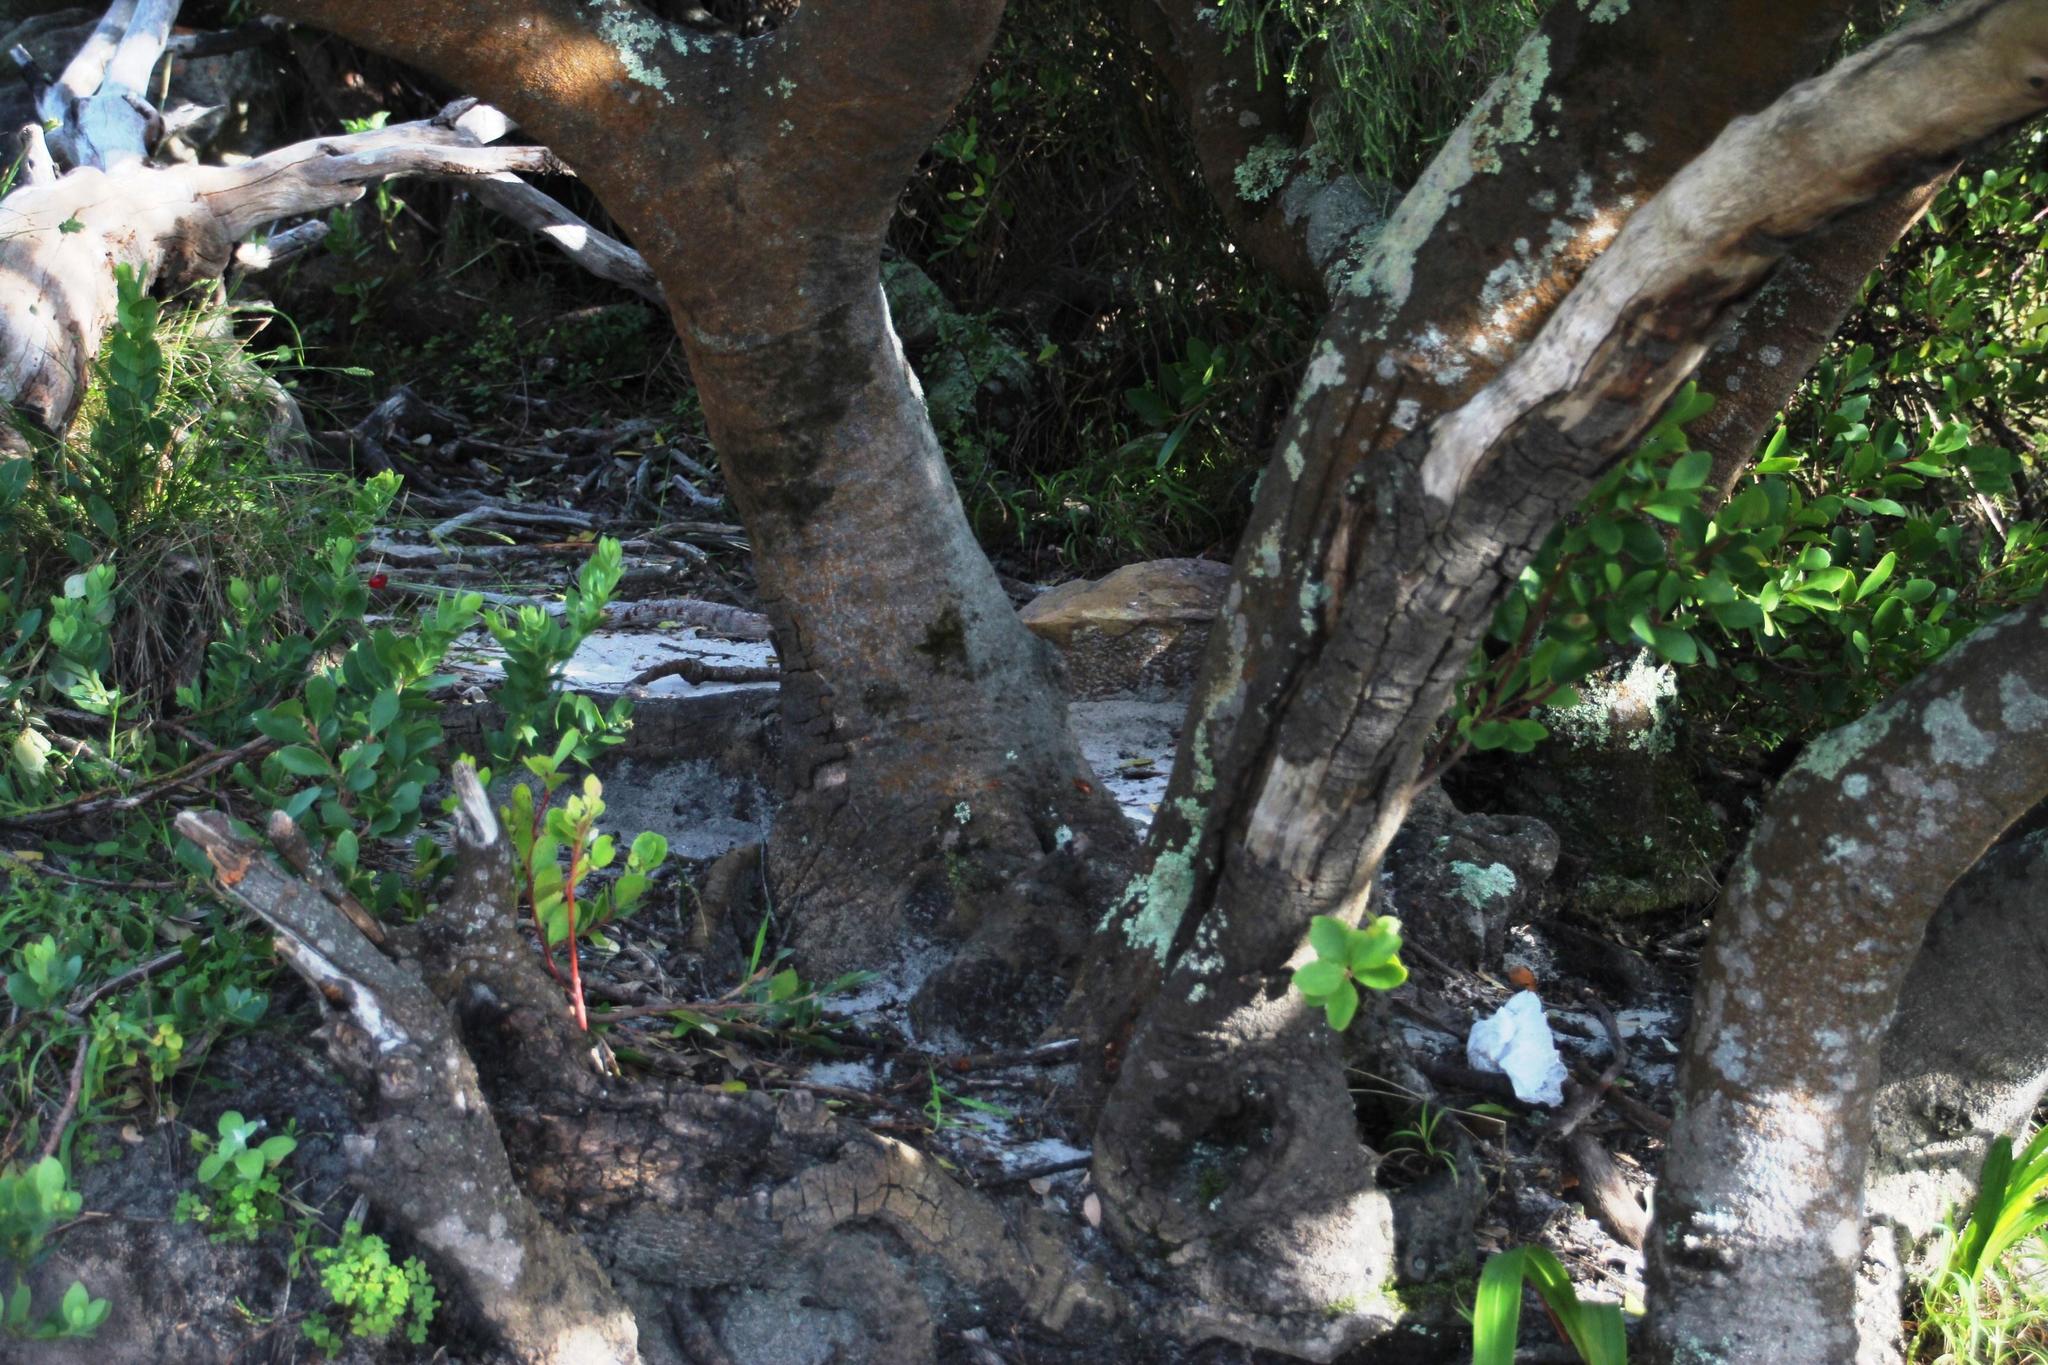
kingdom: Plantae
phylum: Tracheophyta
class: Magnoliopsida
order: Celastrales
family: Celastraceae
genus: Pterocelastrus
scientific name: Pterocelastrus tricuspidatus
